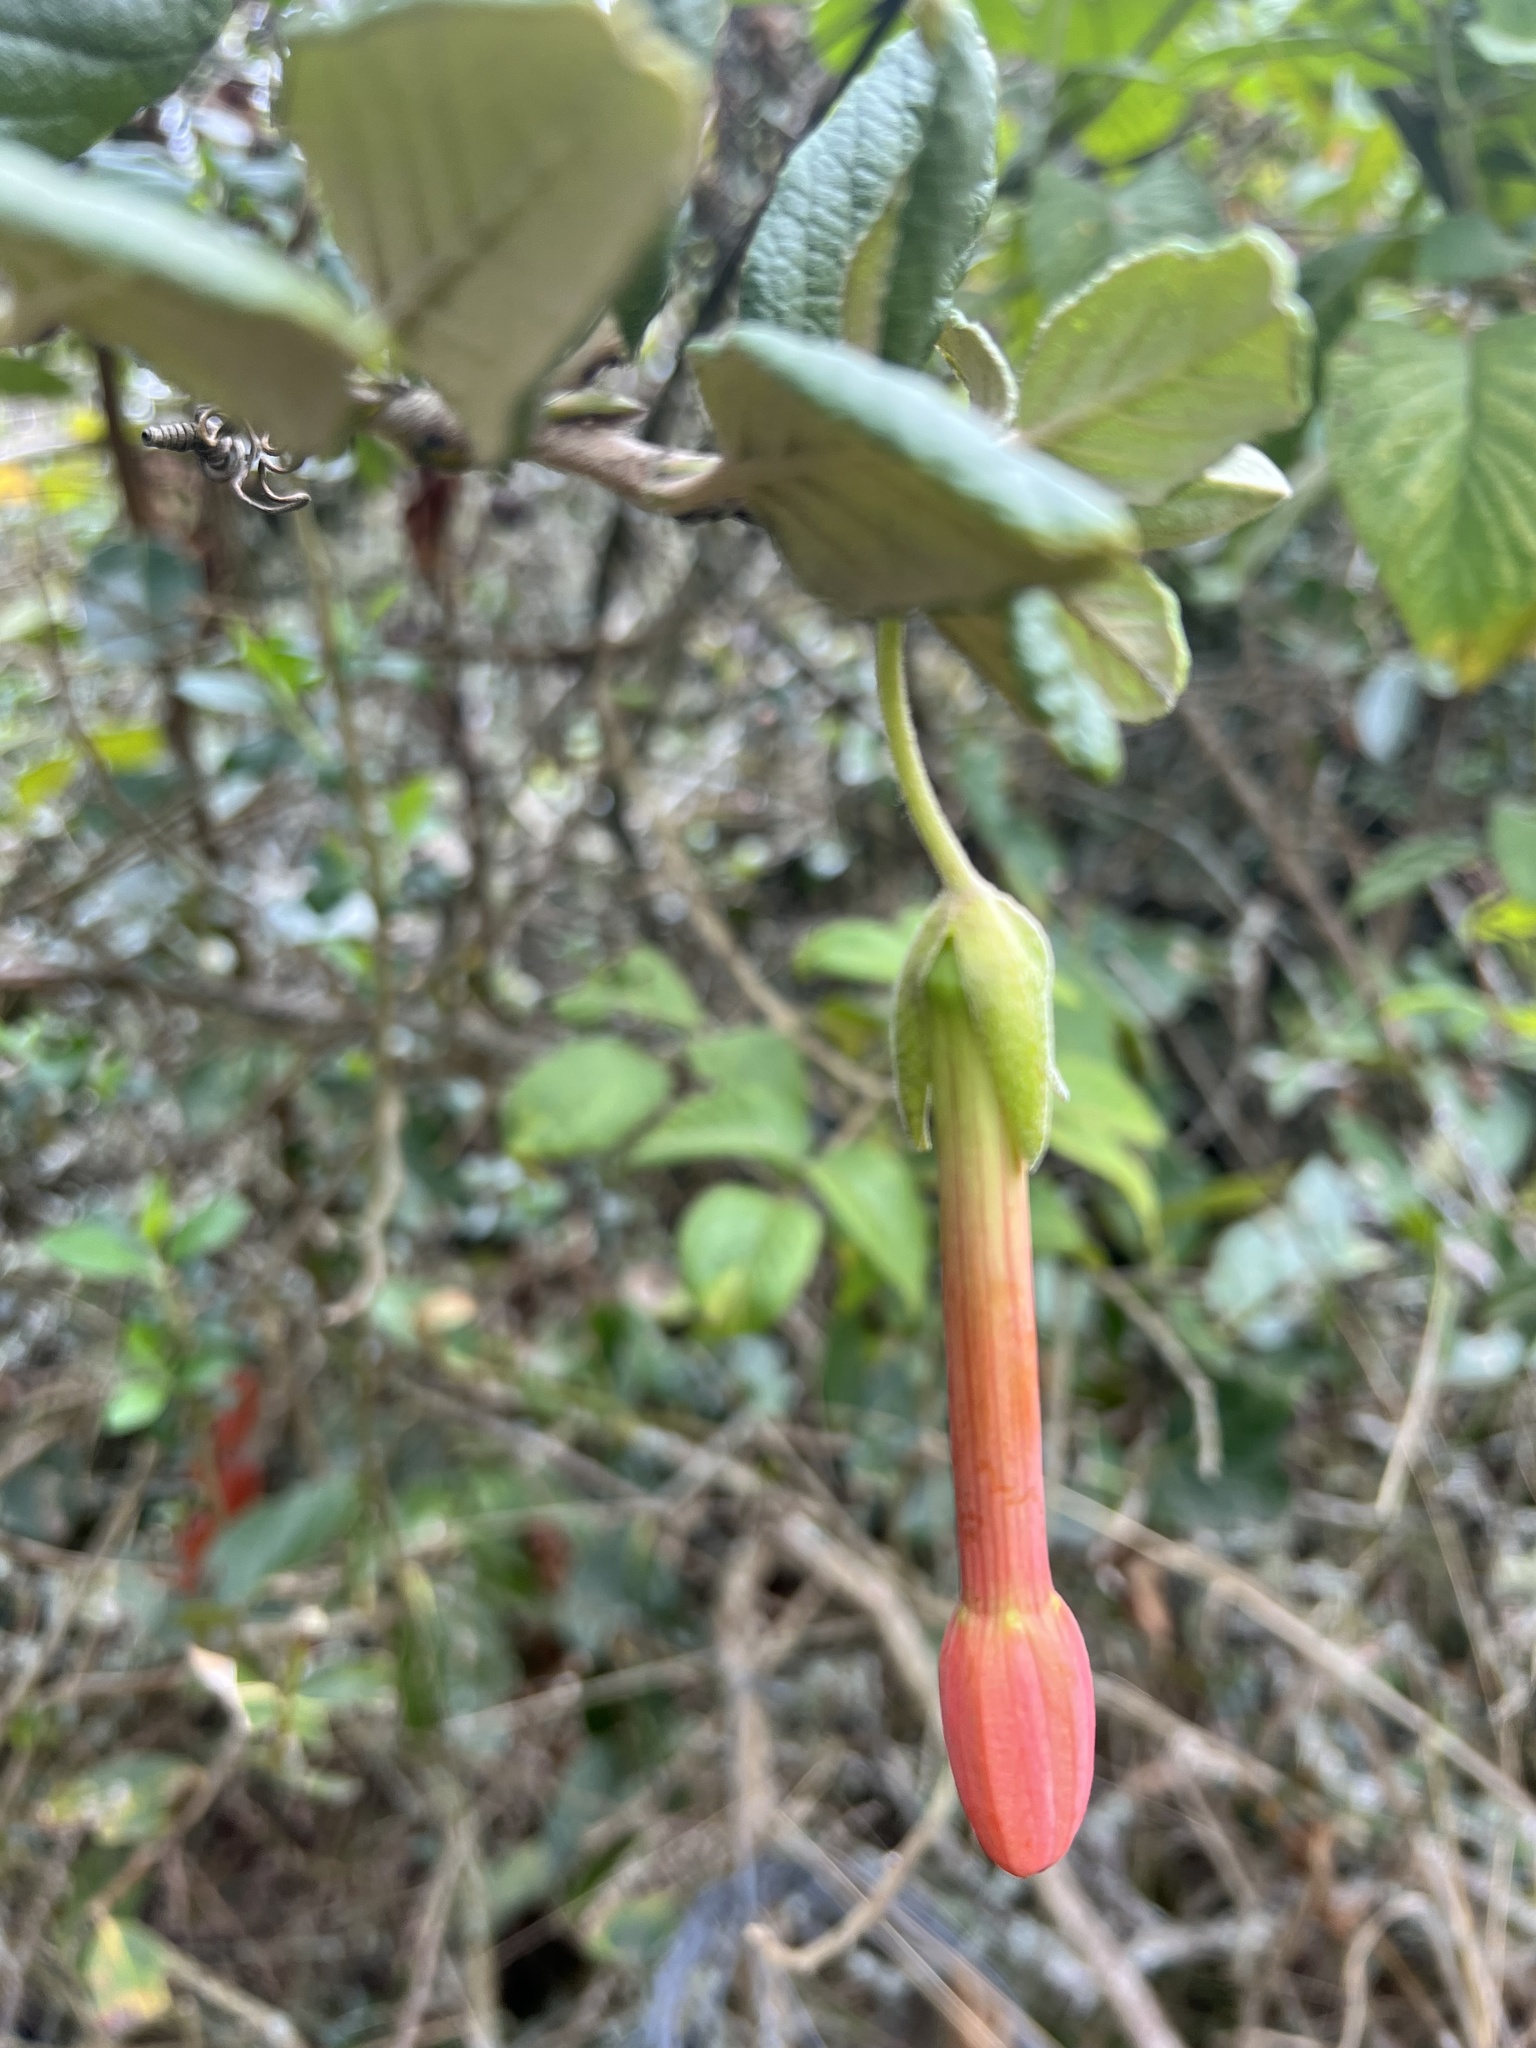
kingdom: Plantae
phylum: Tracheophyta
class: Magnoliopsida
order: Malpighiales
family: Passifloraceae
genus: Passiflora
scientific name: Passiflora adulterina
